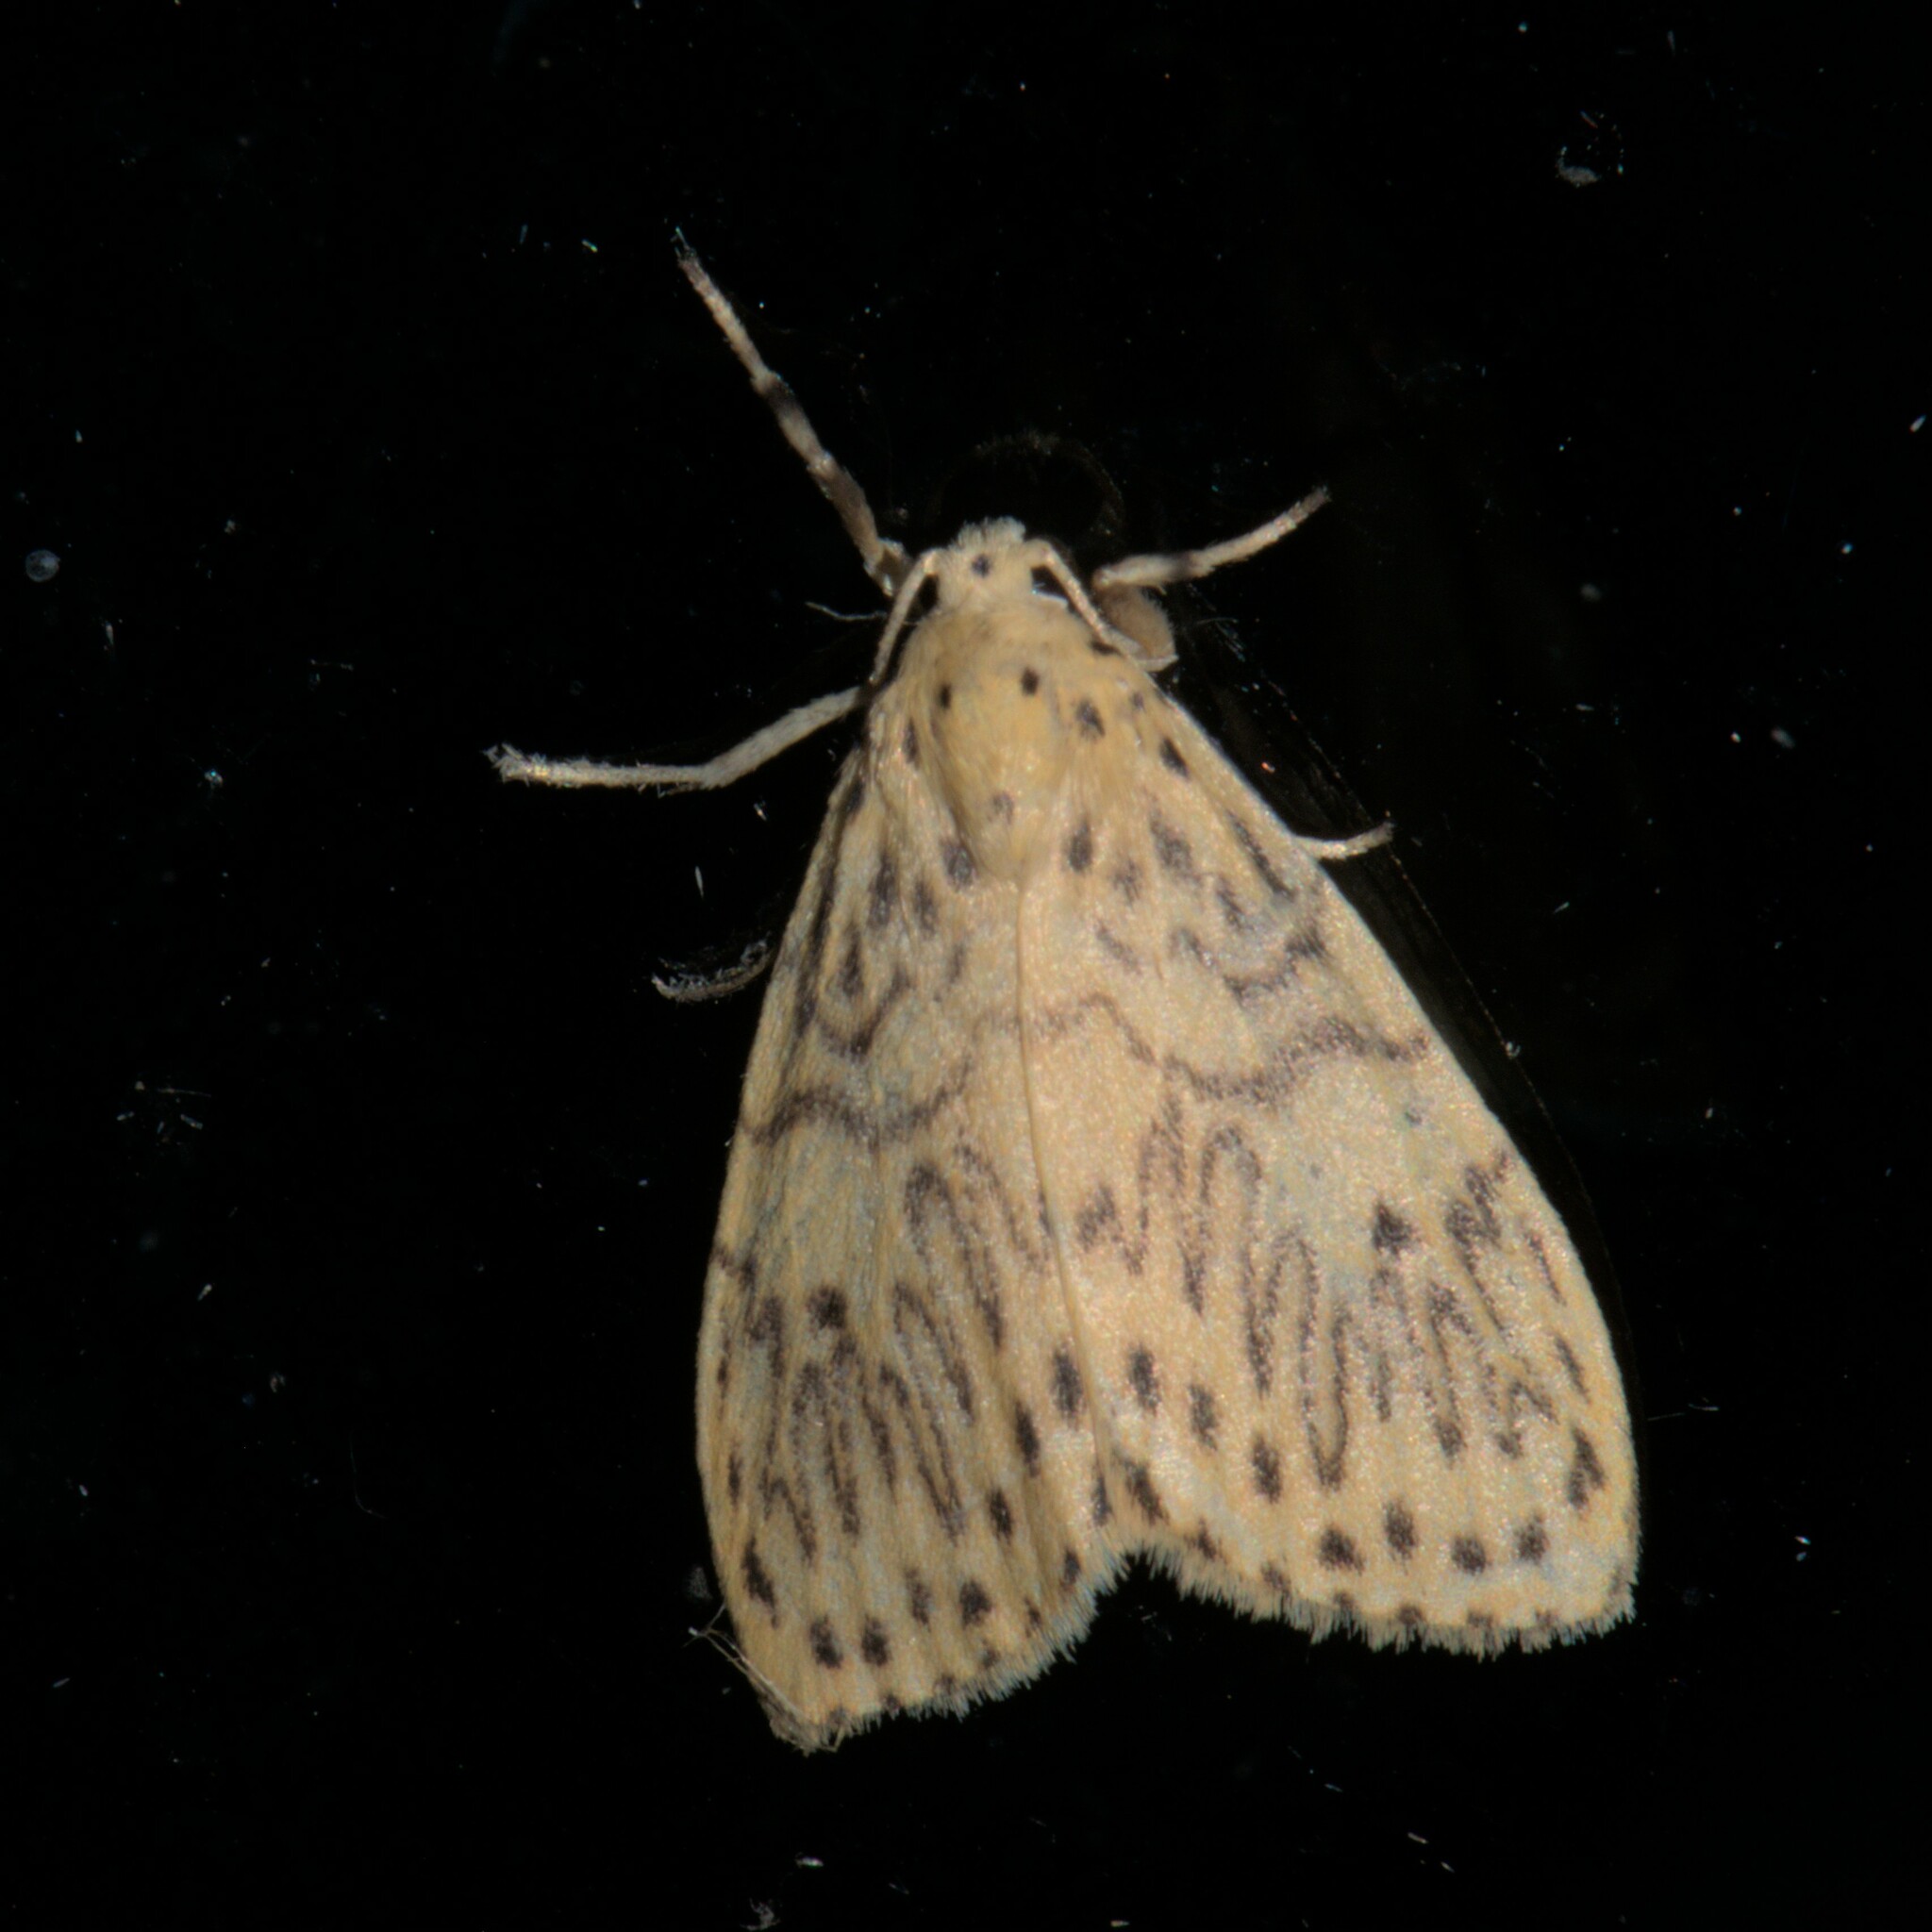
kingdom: Animalia
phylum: Arthropoda
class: Insecta
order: Lepidoptera
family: Erebidae
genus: Miltochrista
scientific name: Miltochrista undulosa
